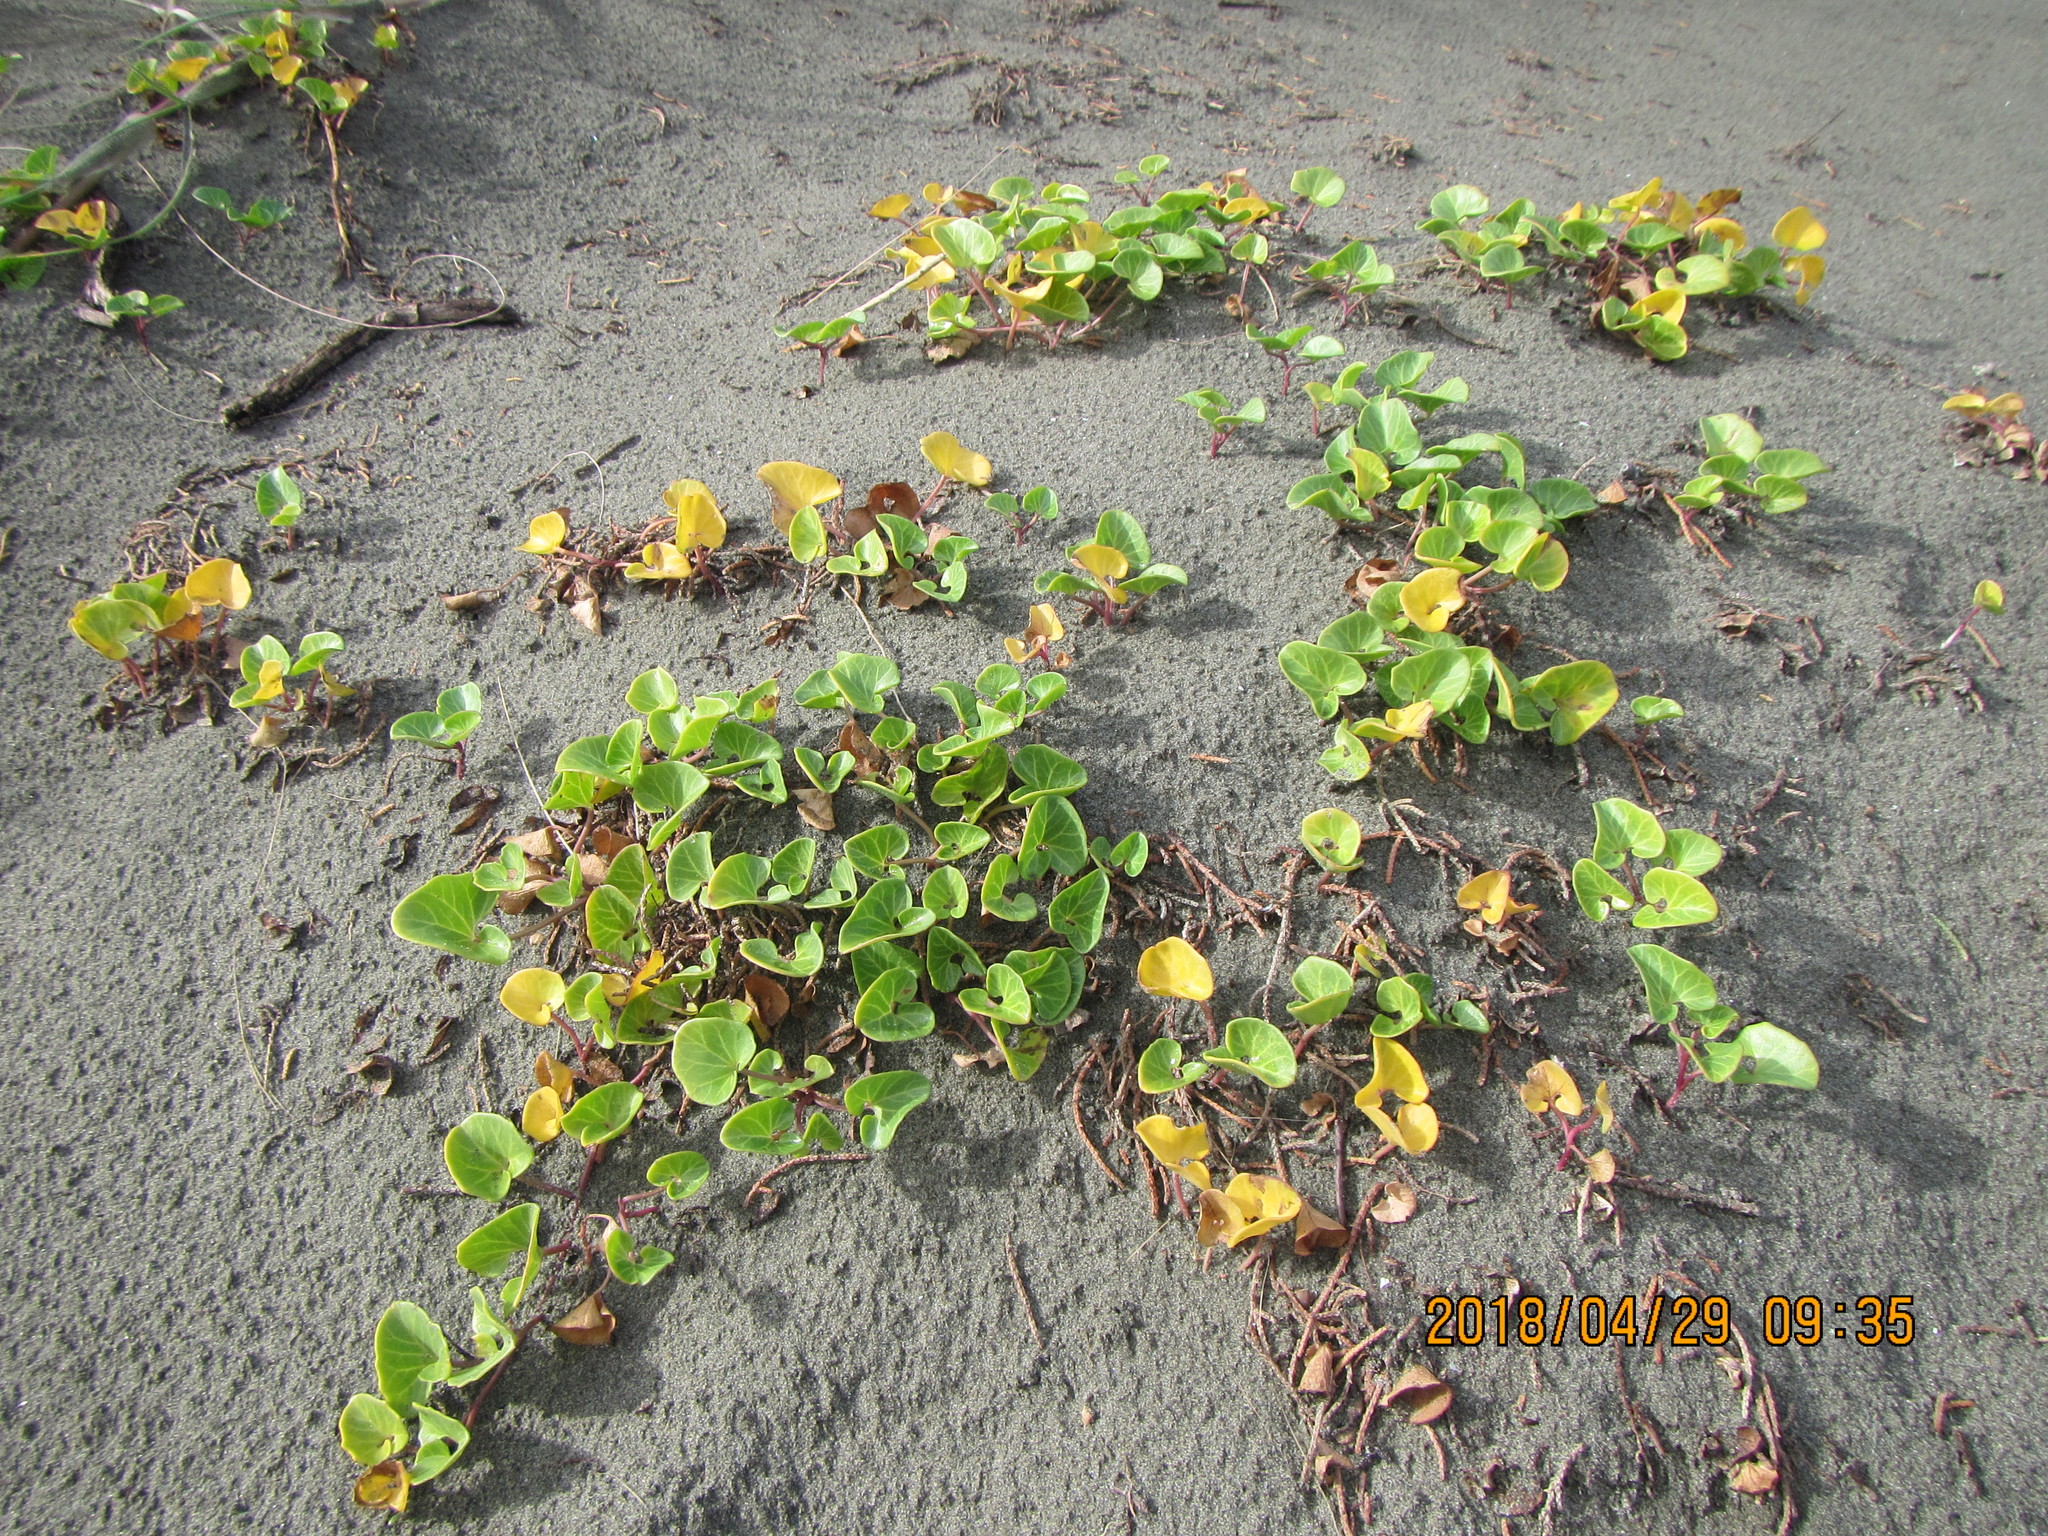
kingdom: Plantae
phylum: Tracheophyta
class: Magnoliopsida
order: Solanales
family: Convolvulaceae
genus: Calystegia
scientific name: Calystegia soldanella
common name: Sea bindweed
